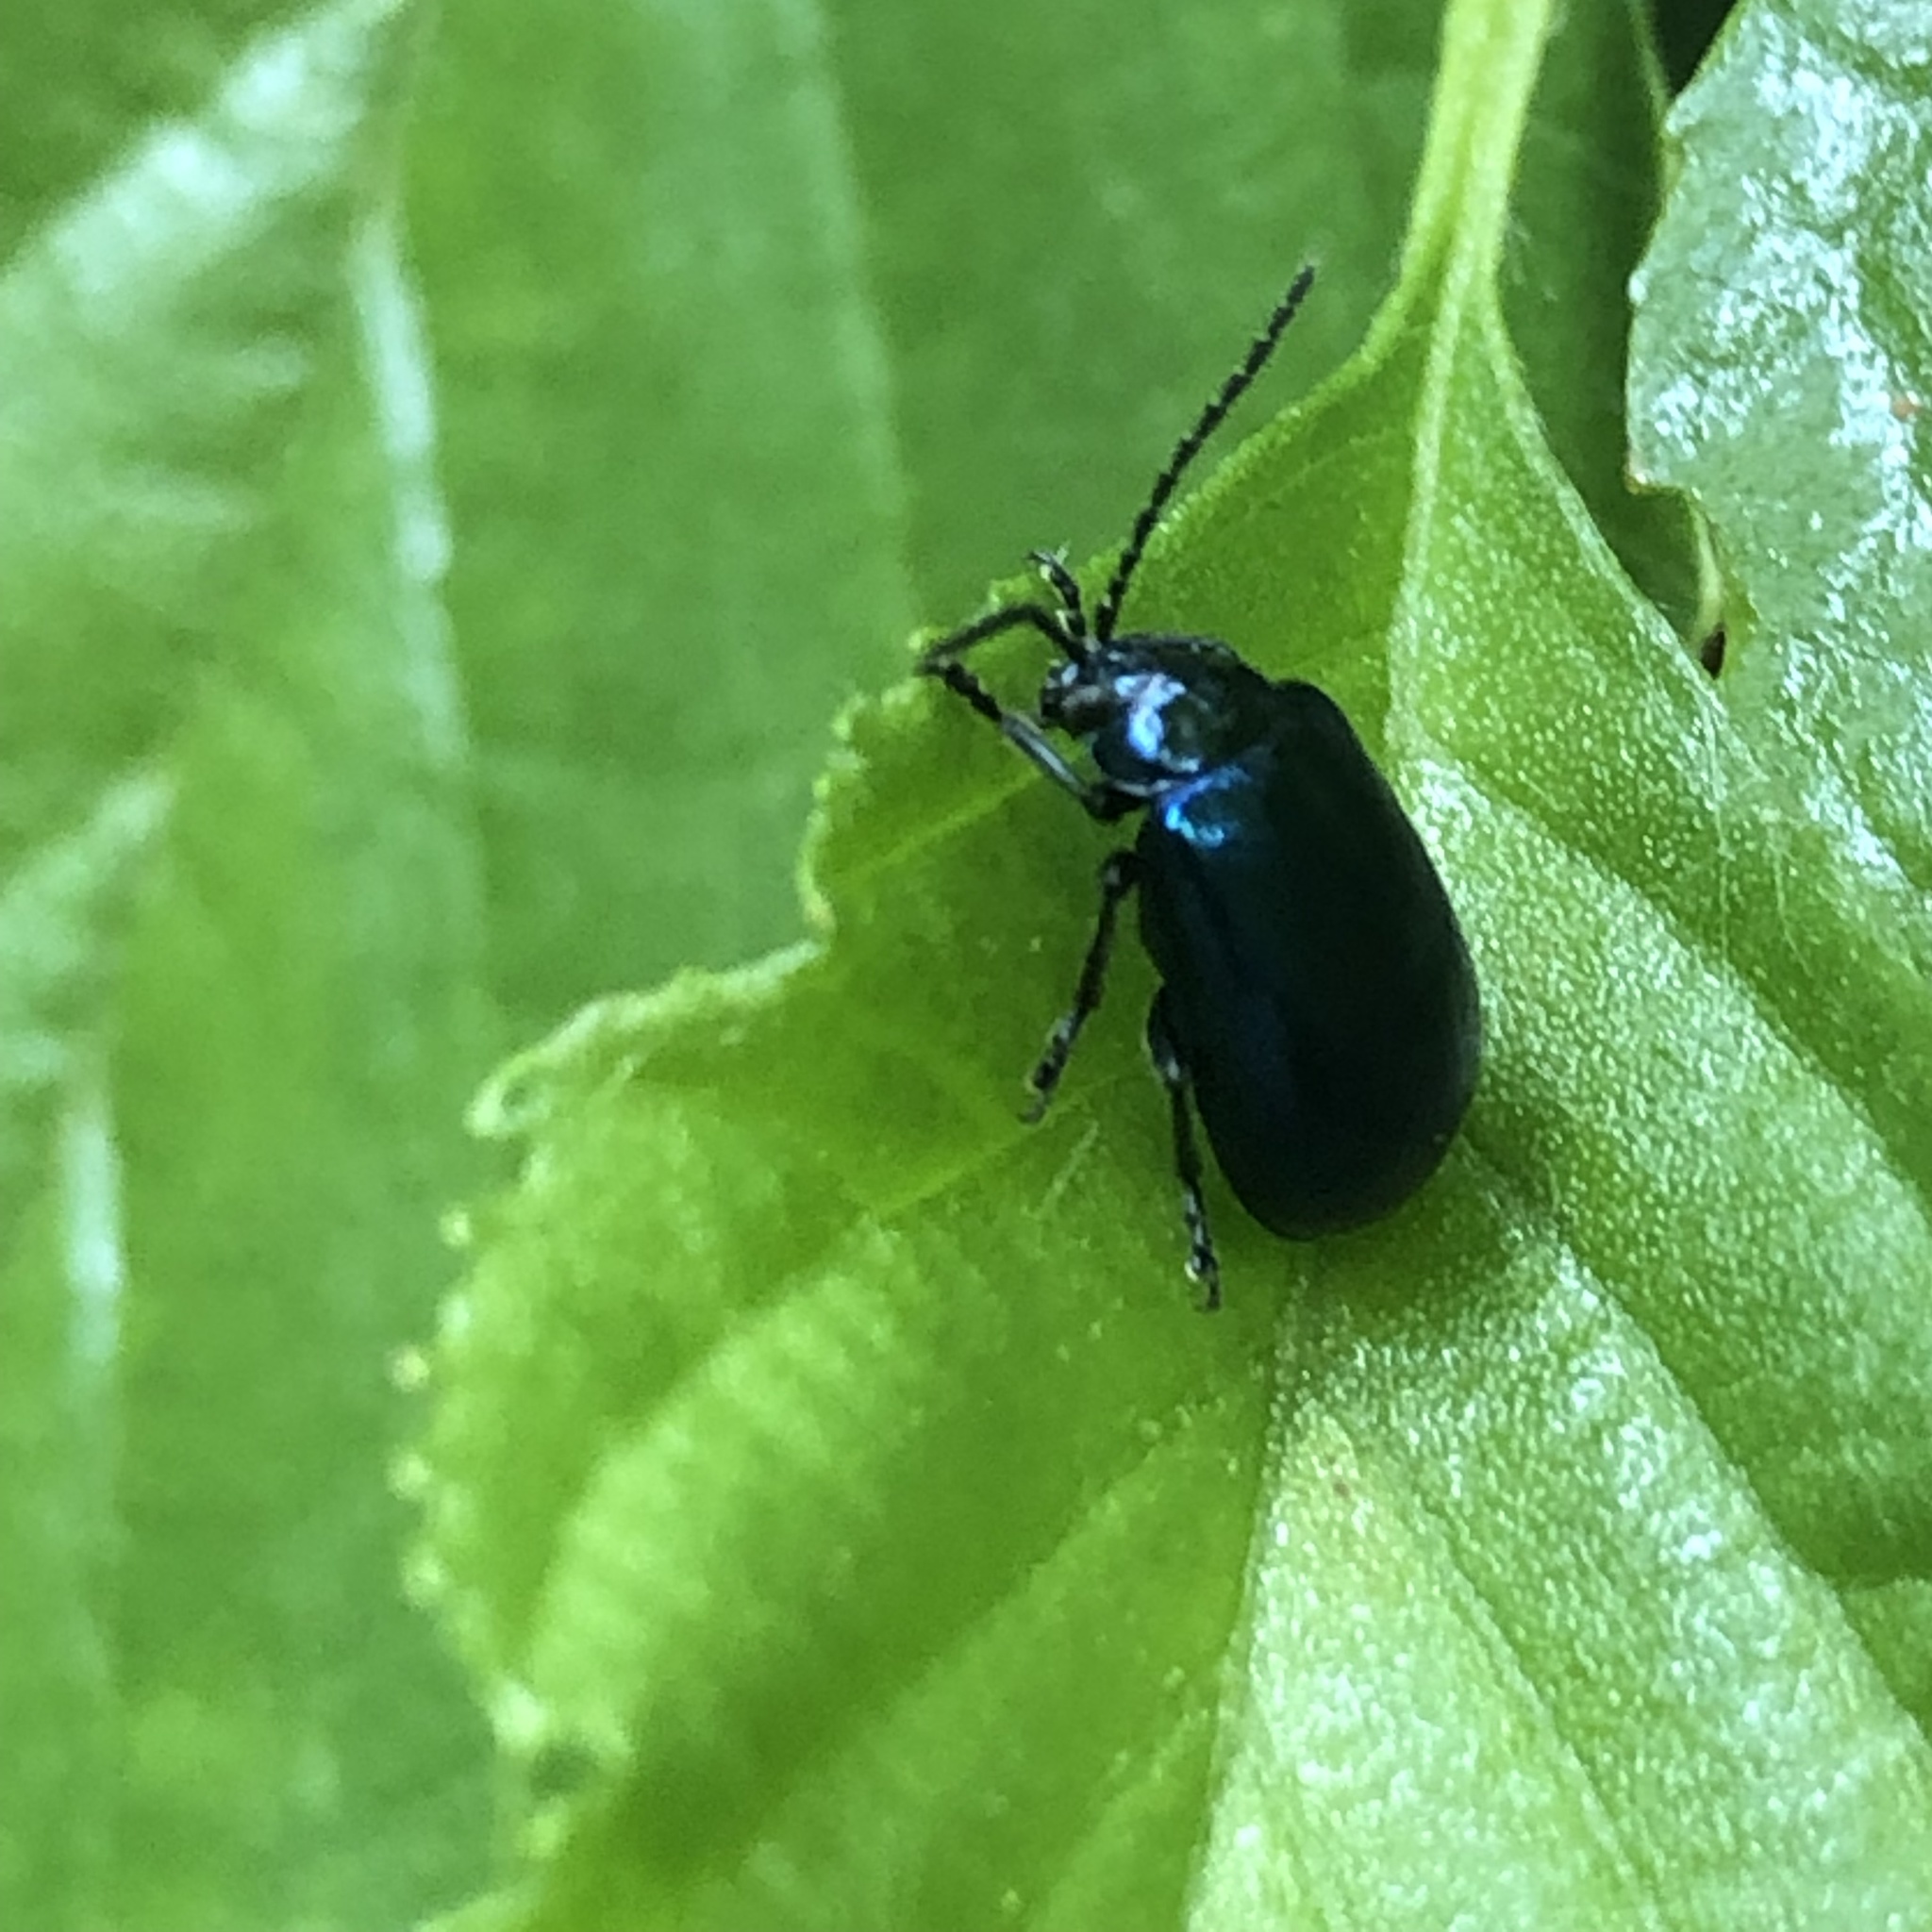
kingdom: Animalia
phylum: Arthropoda
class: Insecta
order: Coleoptera
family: Chrysomelidae
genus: Agelastica
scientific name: Agelastica alni
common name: Alder leaf beetle
